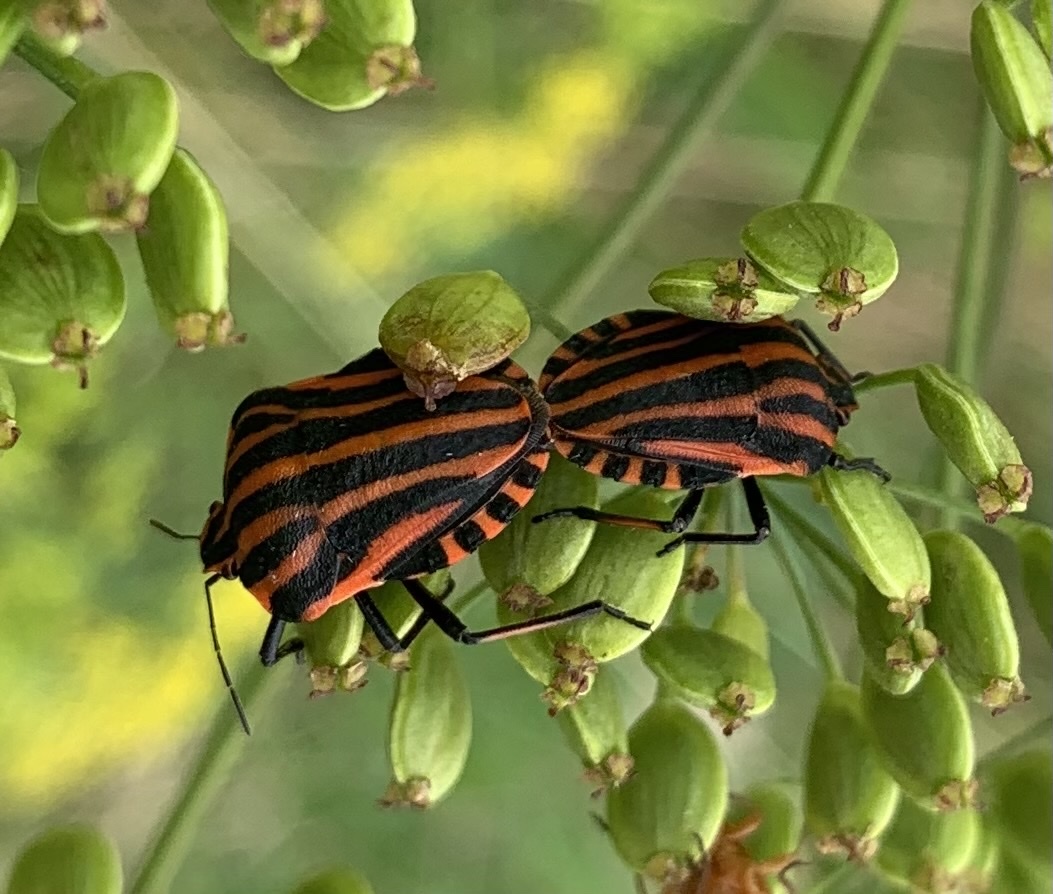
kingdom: Animalia
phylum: Arthropoda
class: Insecta
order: Hemiptera
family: Pentatomidae
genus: Graphosoma
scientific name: Graphosoma italicum
